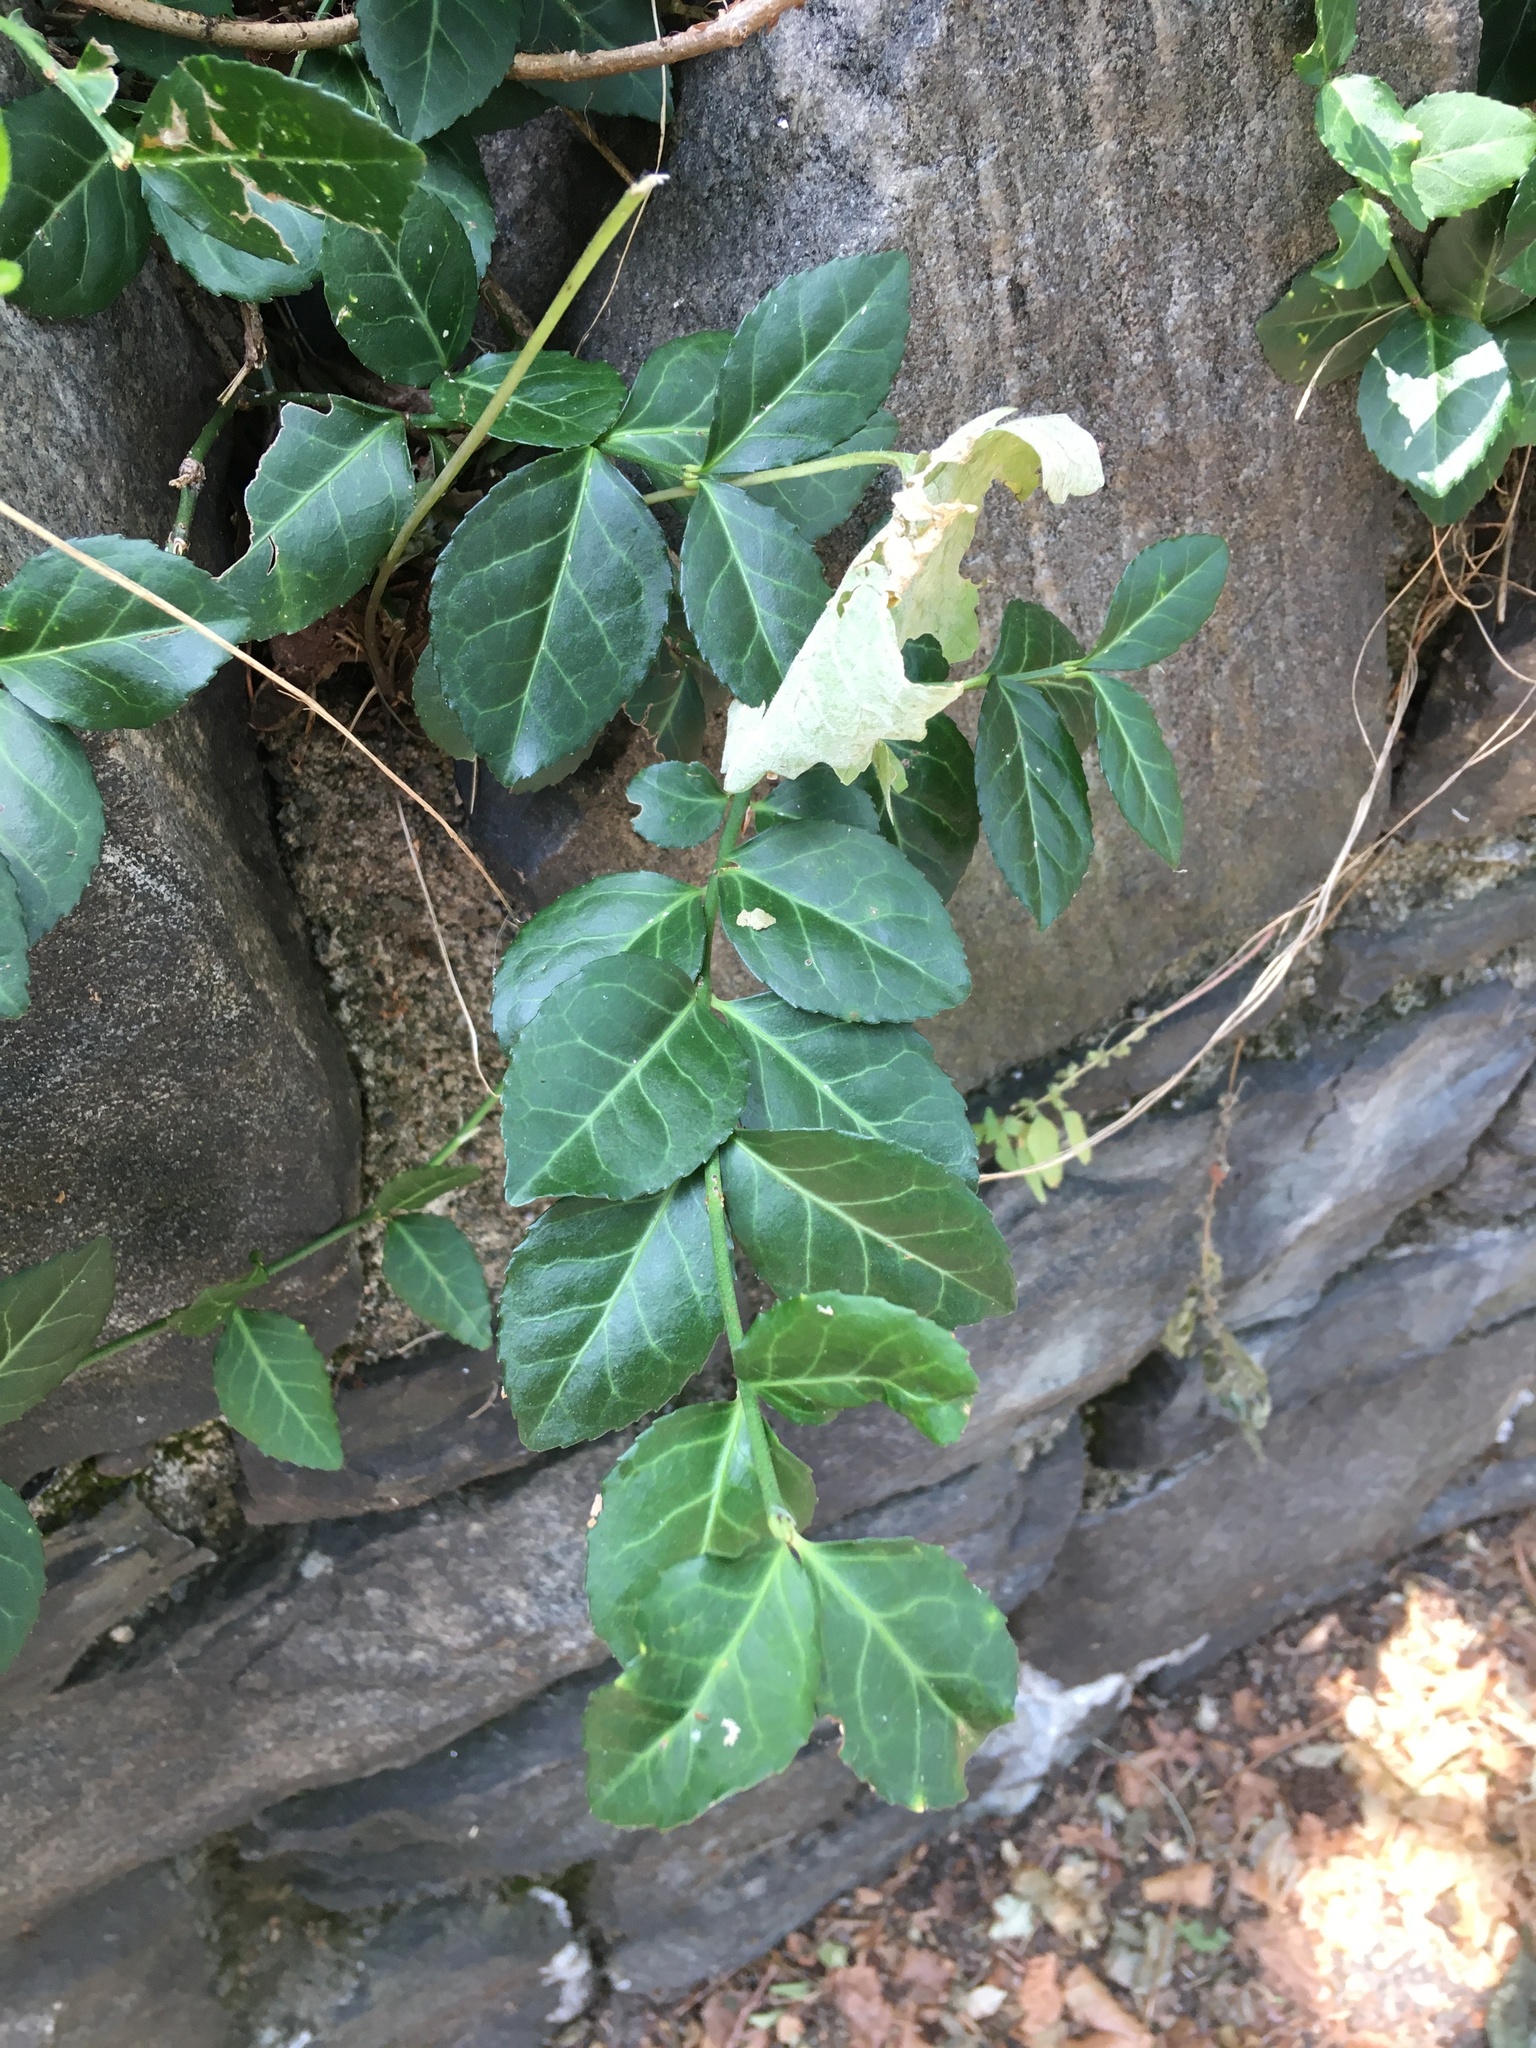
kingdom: Plantae
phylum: Tracheophyta
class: Magnoliopsida
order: Celastrales
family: Celastraceae
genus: Euonymus
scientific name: Euonymus fortunei
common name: Climbing euonymus
